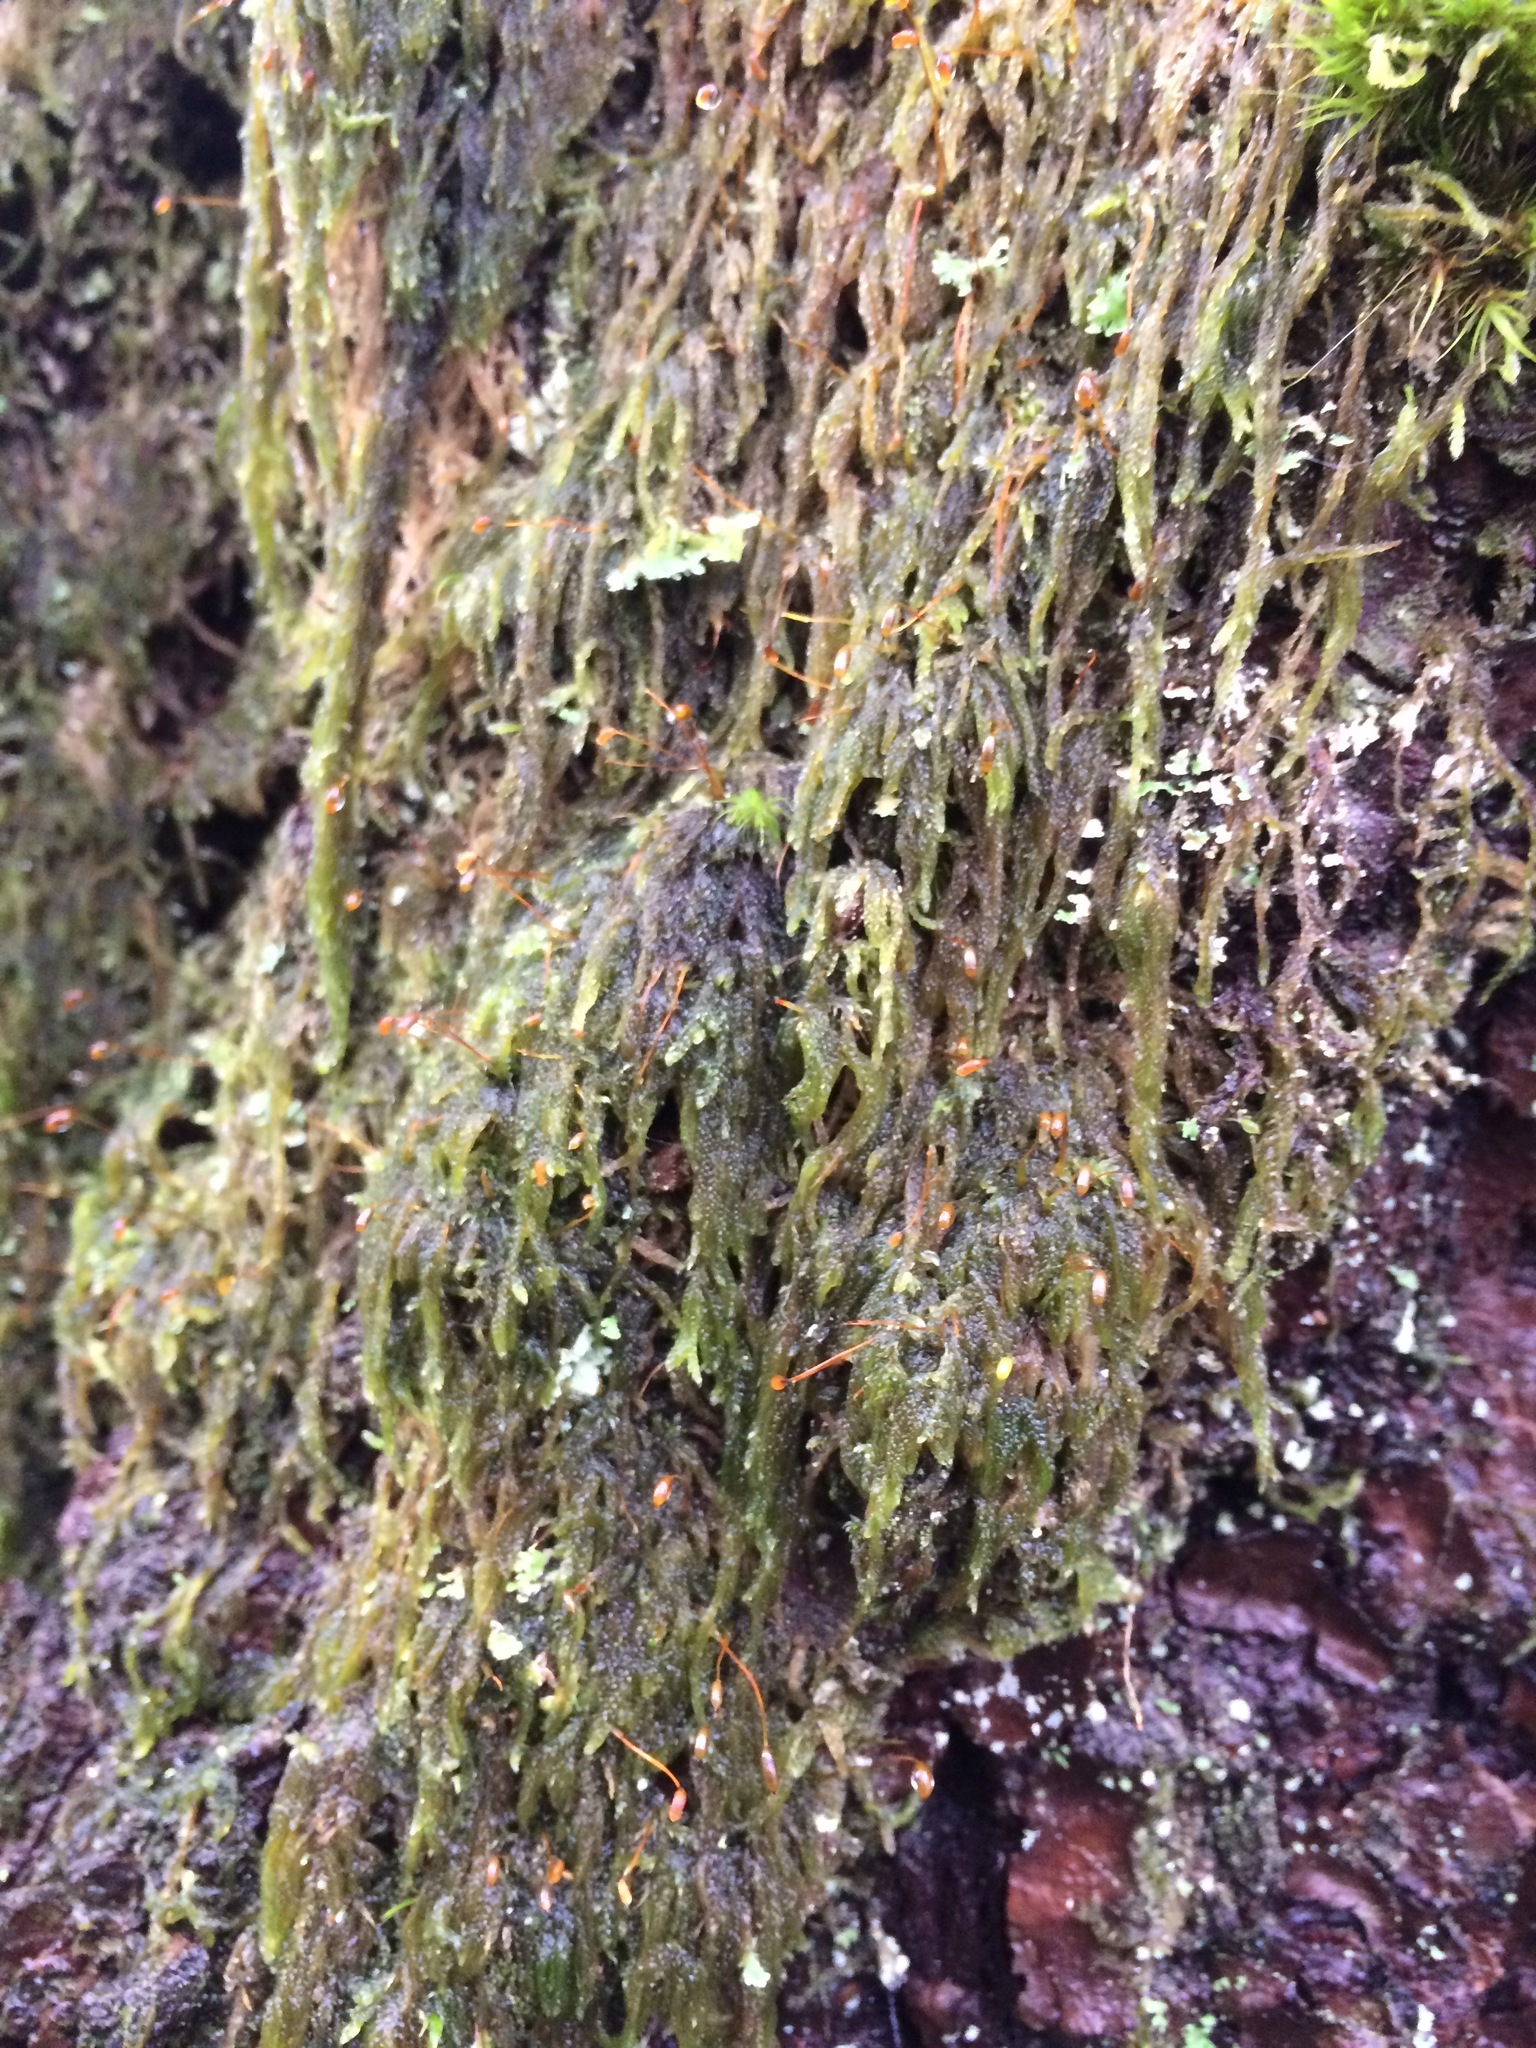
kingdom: Plantae
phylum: Bryophyta
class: Bryopsida
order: Hypnales
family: Pylaisiadelphaceae
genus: Trochophyllohypnum
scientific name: Trochophyllohypnum circinale
